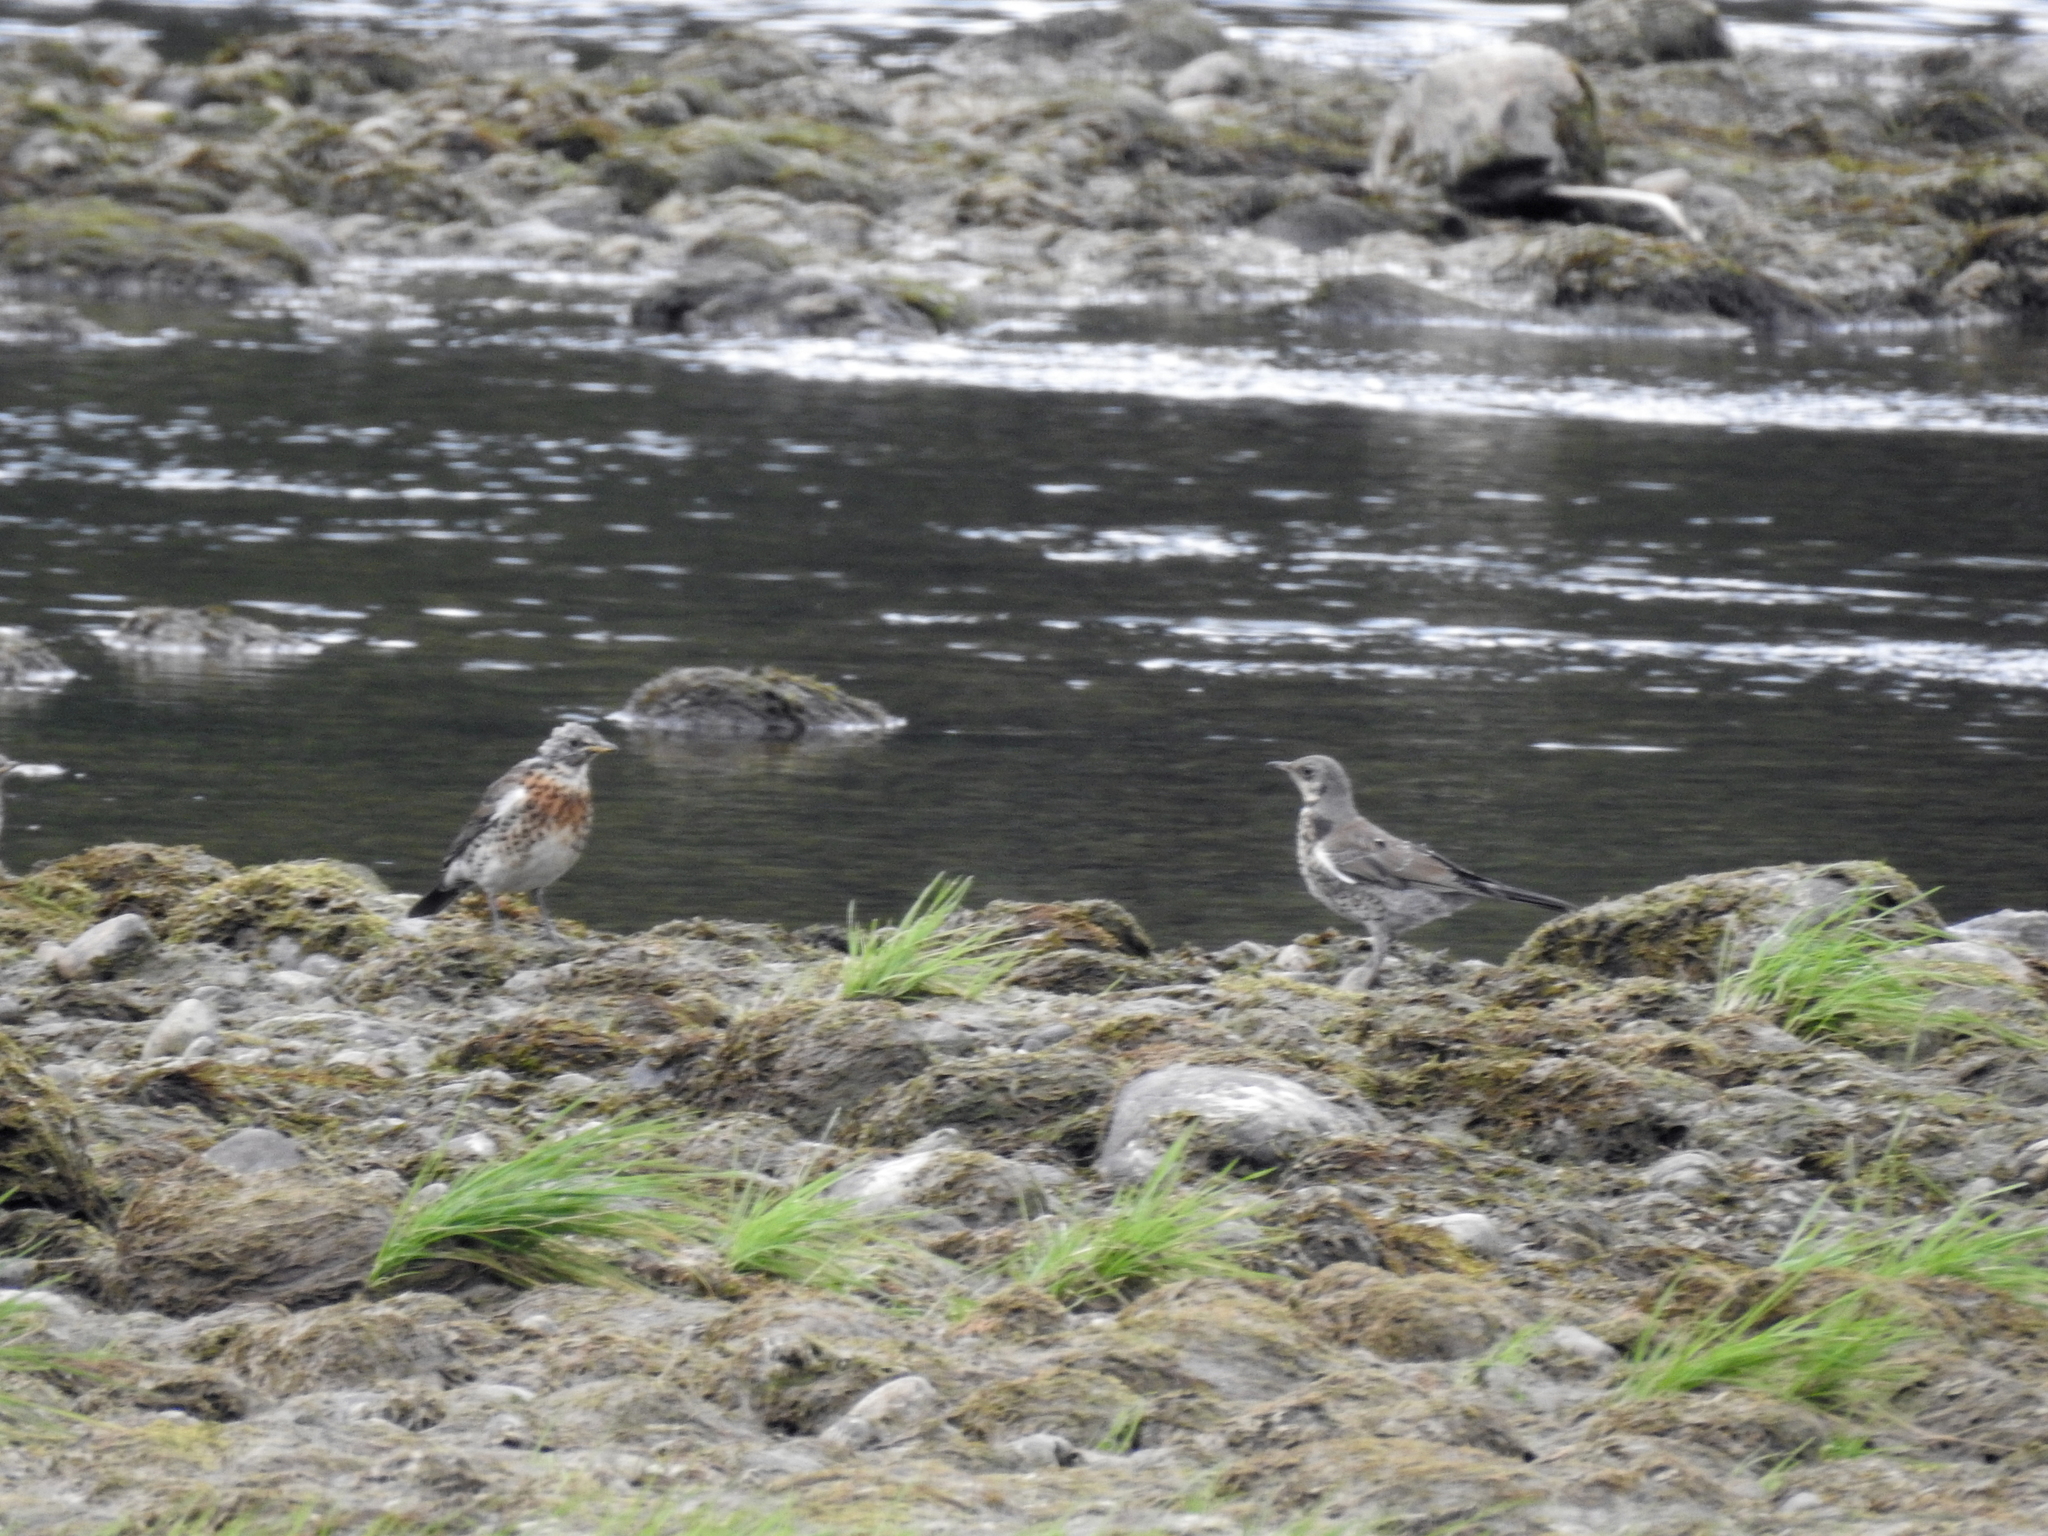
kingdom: Animalia
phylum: Chordata
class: Aves
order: Passeriformes
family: Turdidae
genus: Turdus
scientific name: Turdus pilaris
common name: Fieldfare
